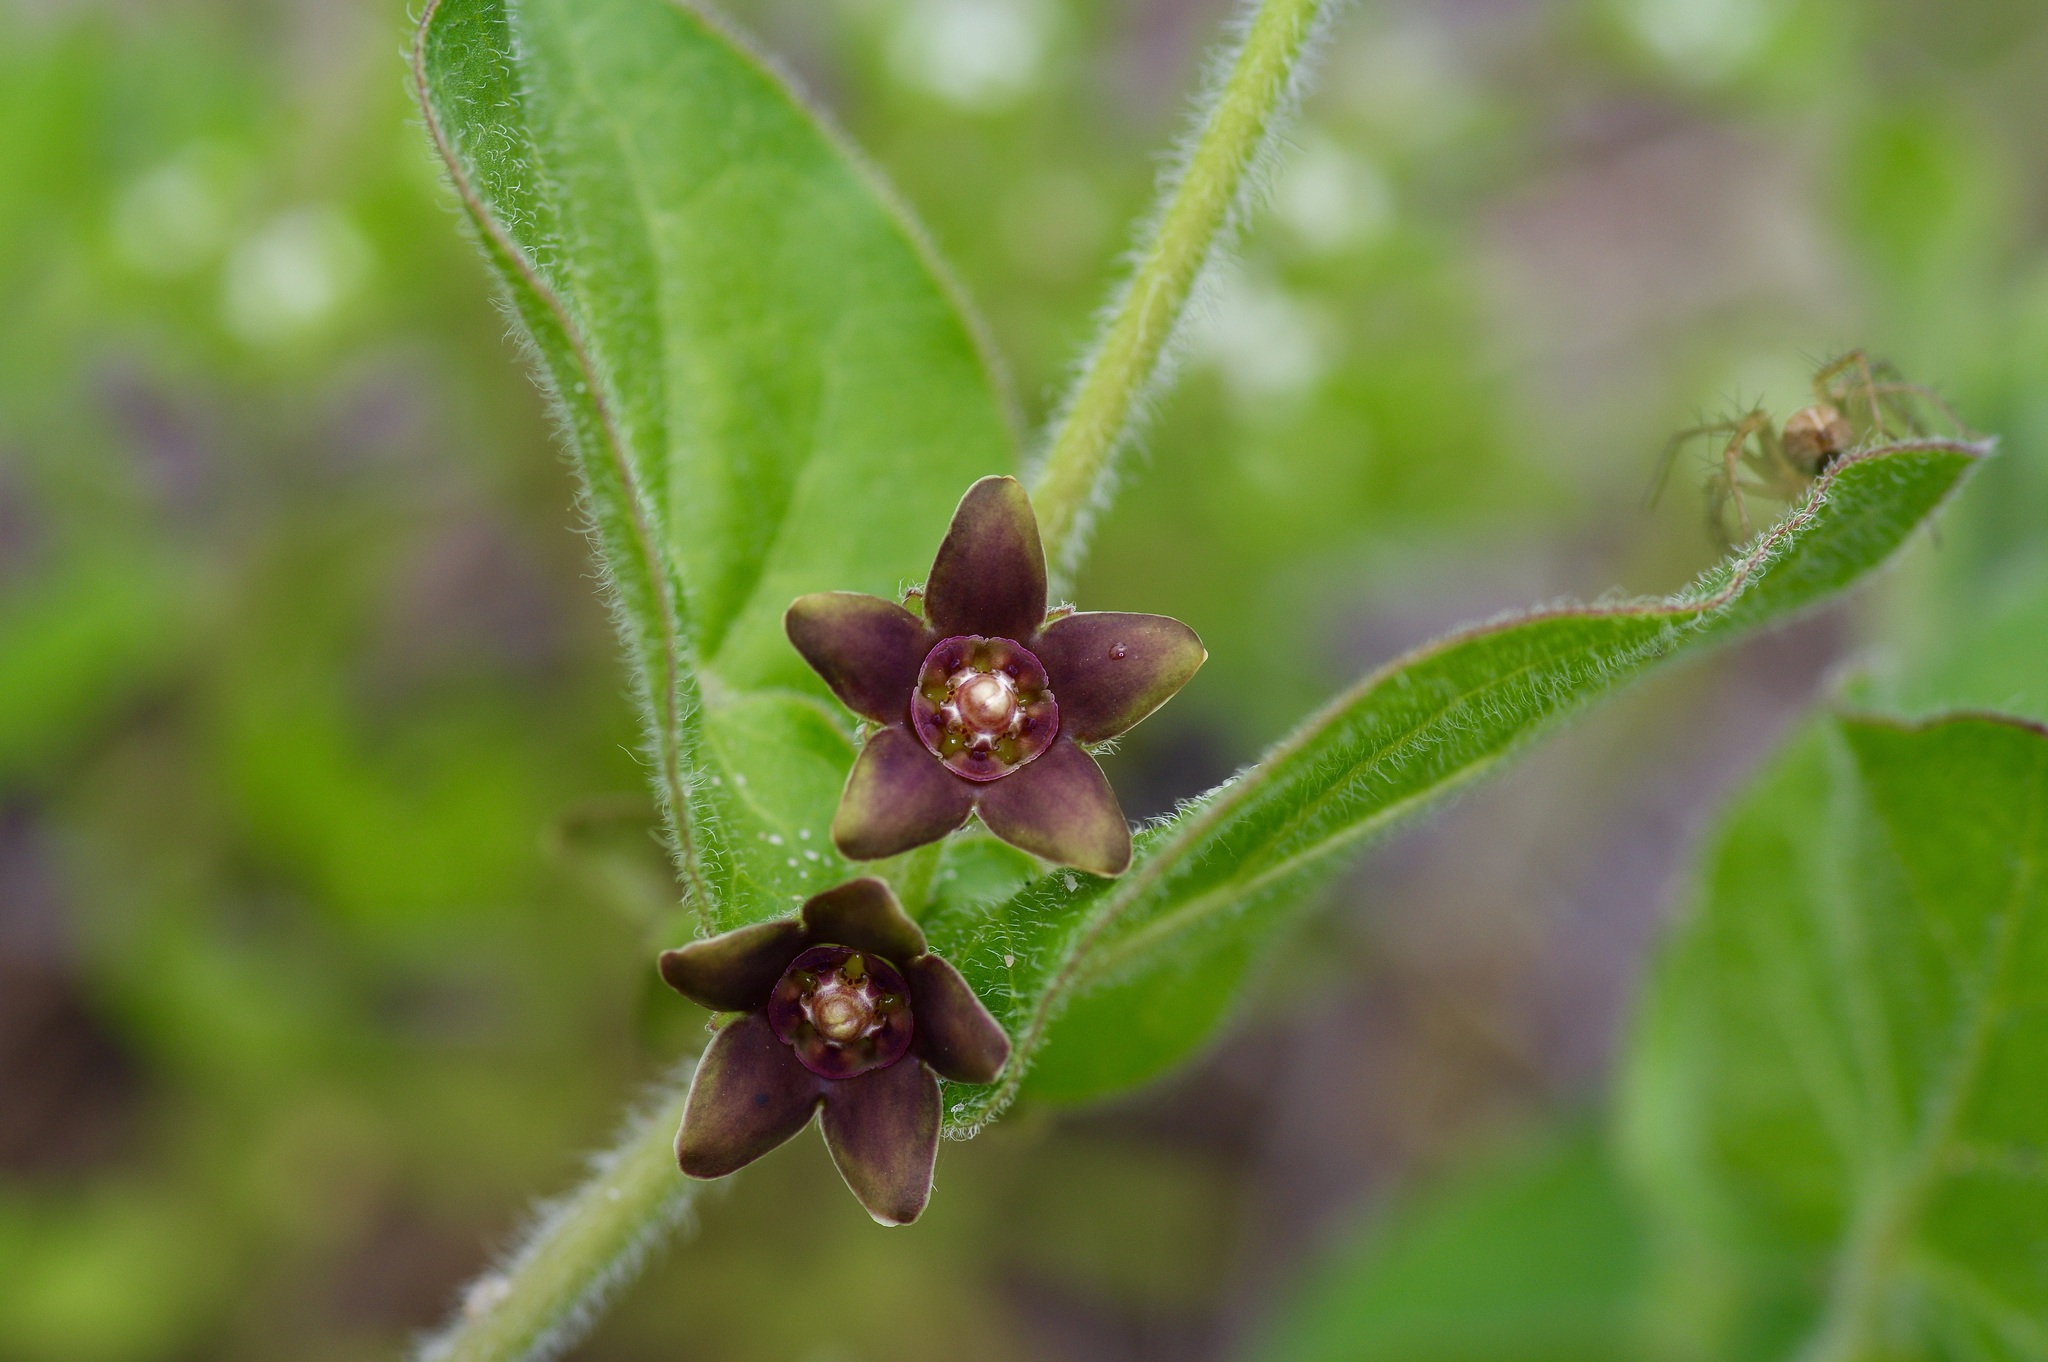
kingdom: Plantae
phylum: Tracheophyta
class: Magnoliopsida
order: Gentianales
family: Apocynaceae
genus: Matelea
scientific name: Matelea cynanchoides
